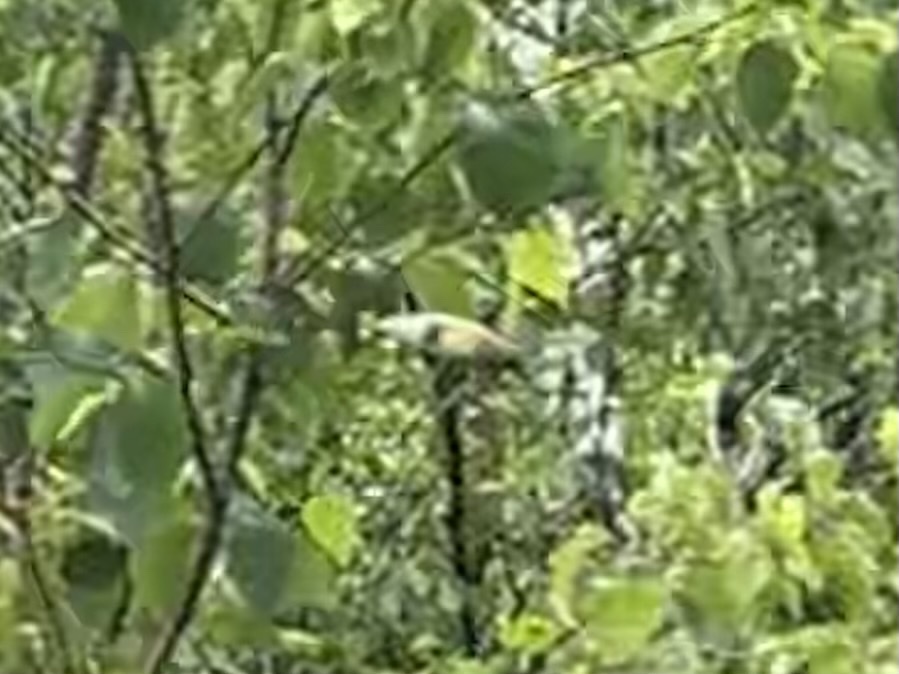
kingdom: Animalia
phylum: Chordata
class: Aves
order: Passeriformes
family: Bombycillidae
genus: Bombycilla
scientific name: Bombycilla cedrorum
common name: Cedar waxwing
